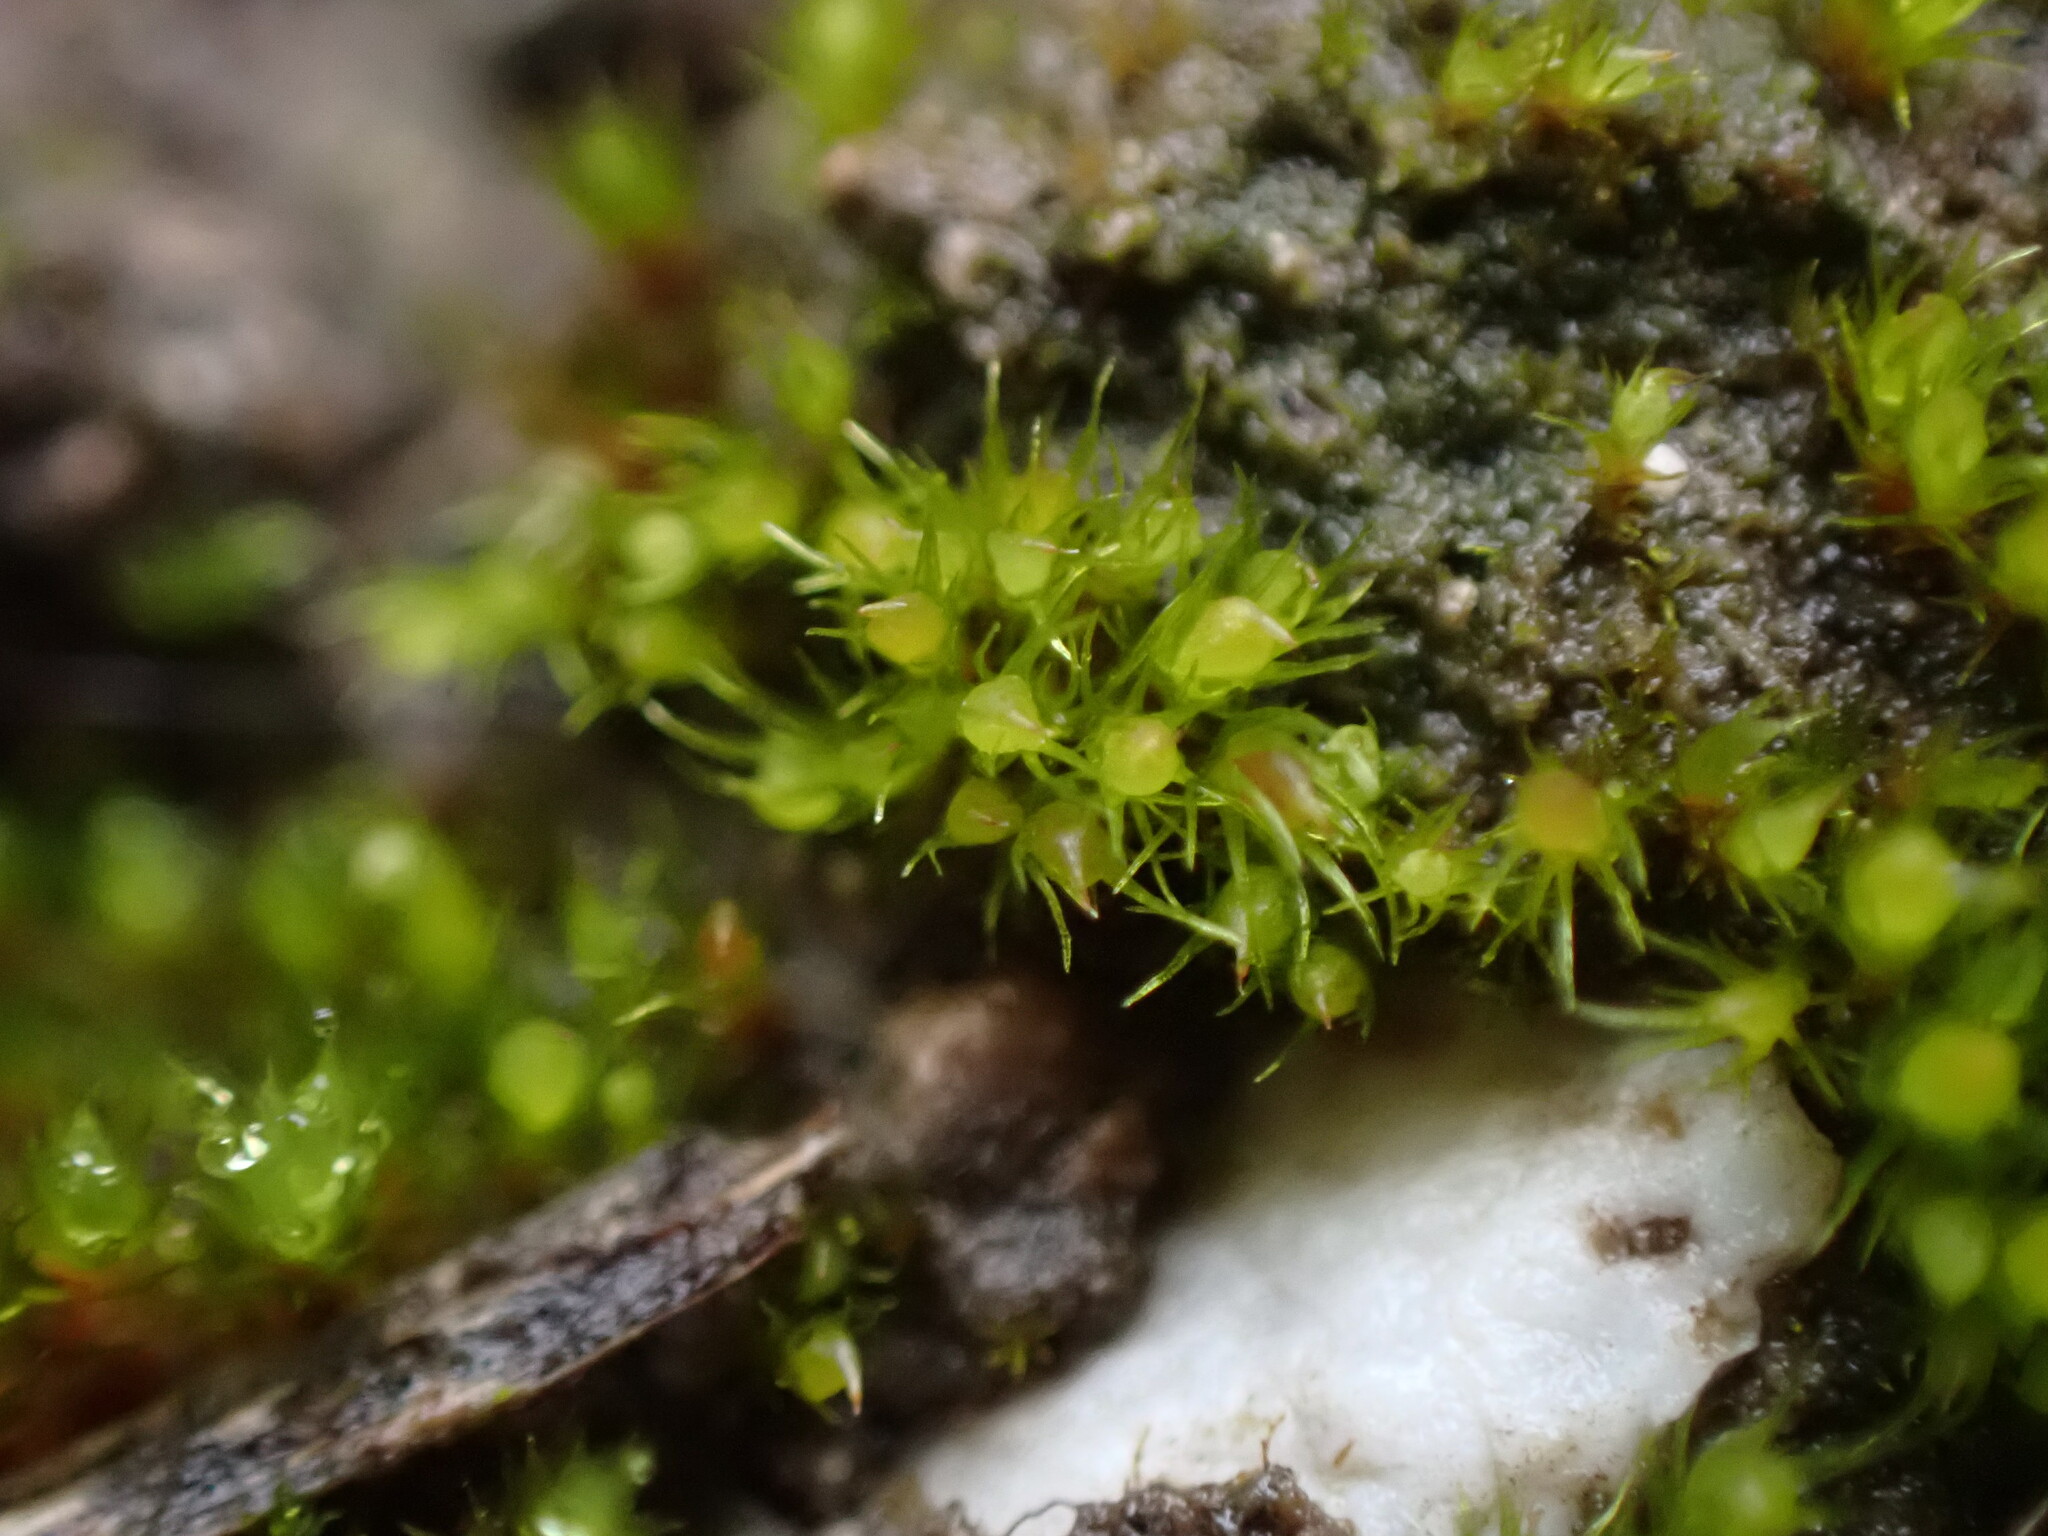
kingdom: Plantae
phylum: Bryophyta
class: Bryopsida
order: Dicranales
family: Ditrichaceae
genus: Pleuridium
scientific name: Pleuridium acuminatum
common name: Taper-leaved earth-moss
